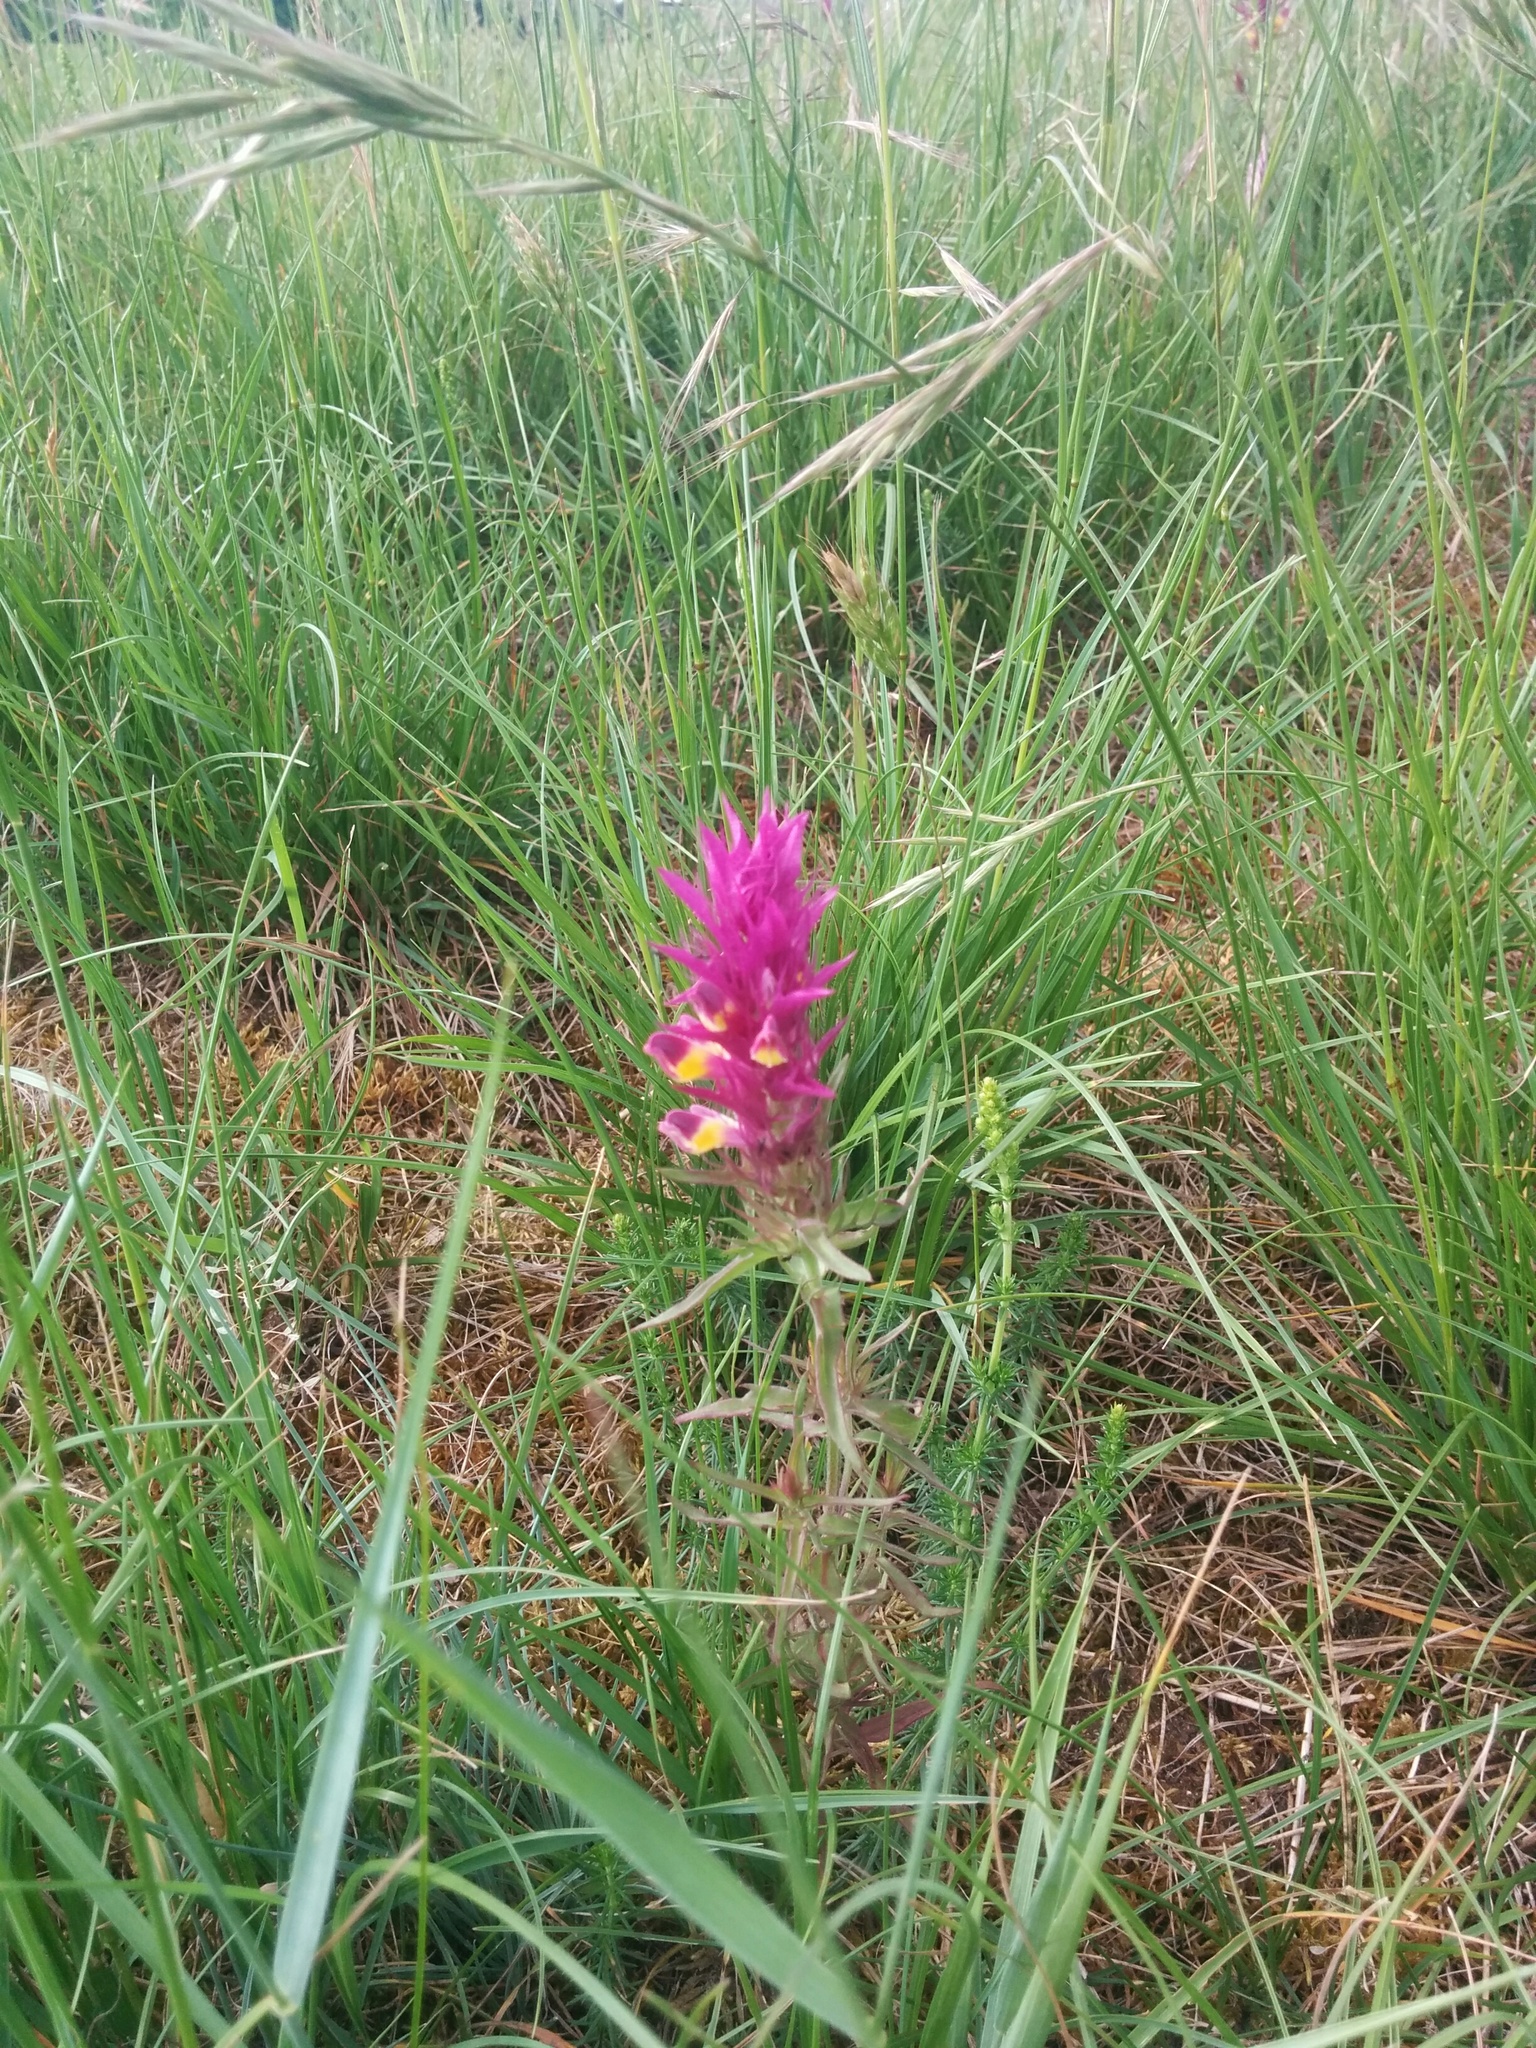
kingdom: Plantae
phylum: Tracheophyta
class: Magnoliopsida
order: Lamiales
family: Orobanchaceae
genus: Melampyrum
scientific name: Melampyrum arvense
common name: Field cow-wheat
